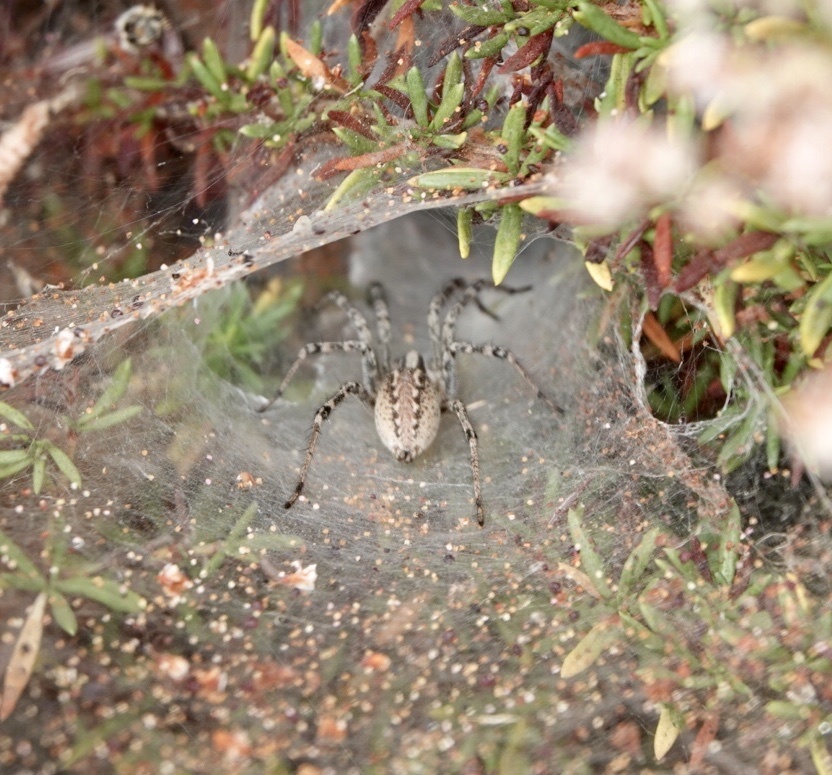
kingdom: Animalia
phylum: Arthropoda
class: Arachnida
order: Araneae
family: Agelenidae
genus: Agelenopsis
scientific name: Agelenopsis aperta
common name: Desert grass spider
